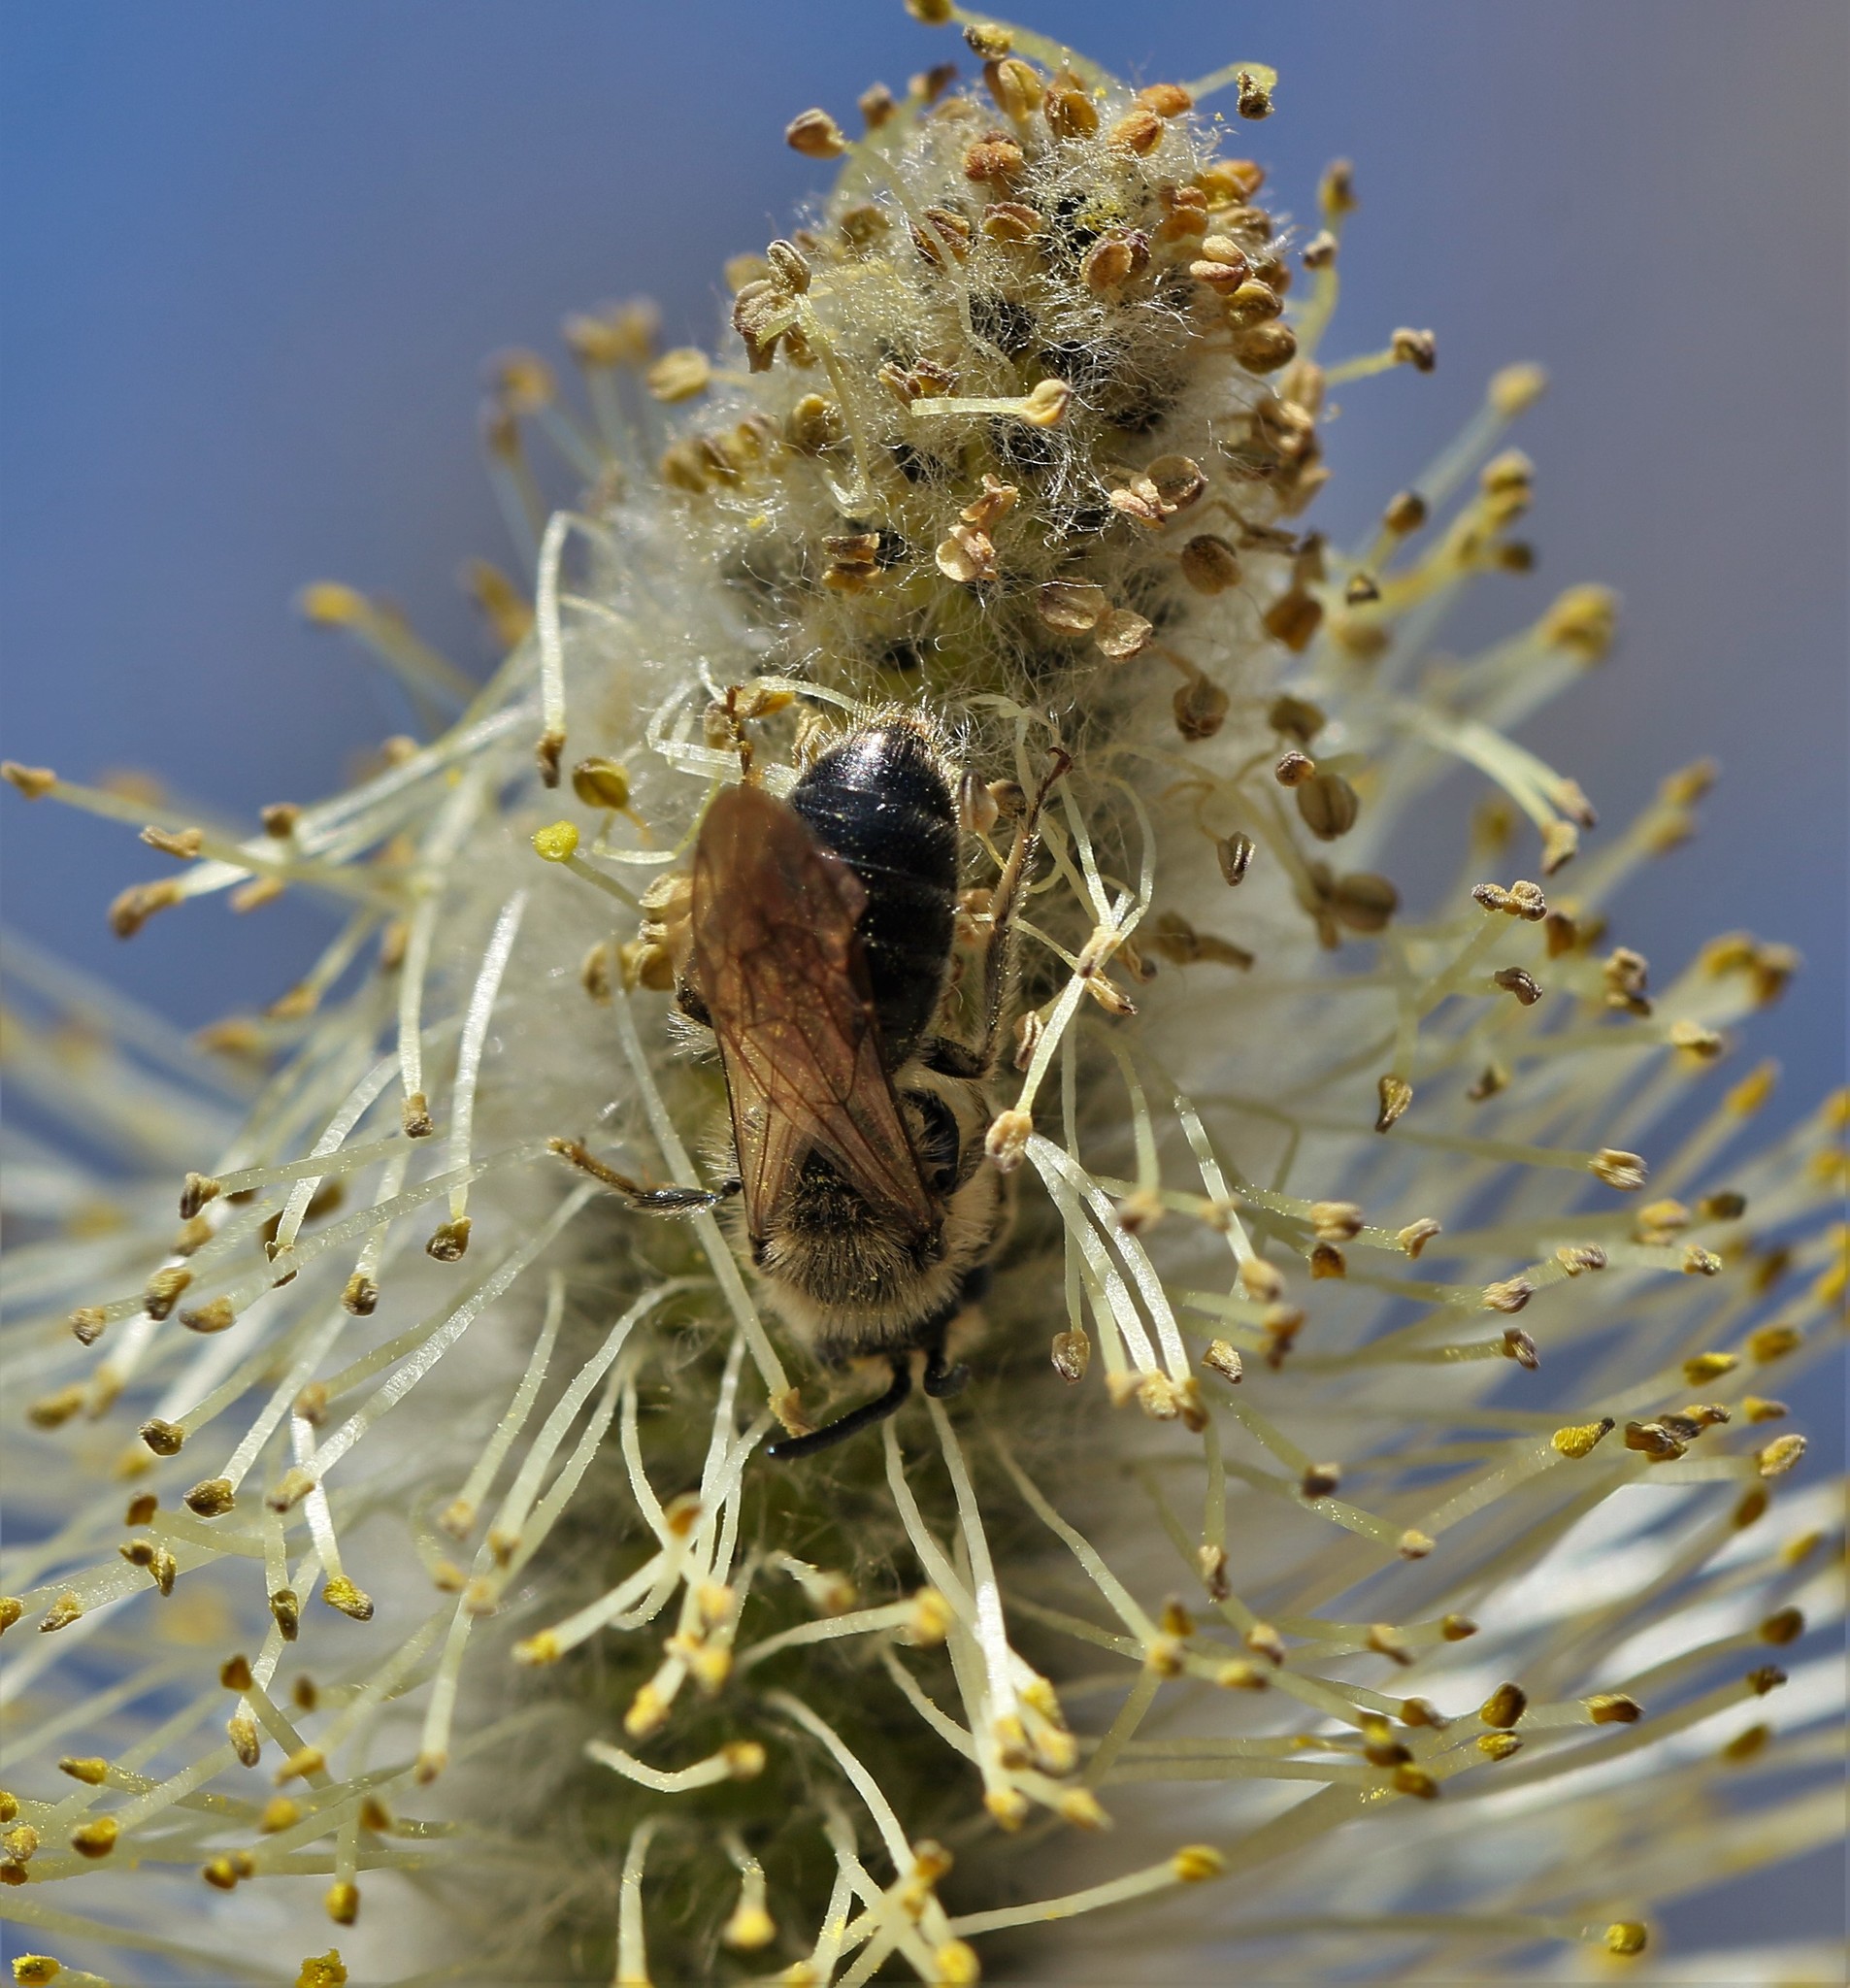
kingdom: Animalia
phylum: Arthropoda
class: Insecta
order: Hymenoptera
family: Andrenidae
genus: Andrena
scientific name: Andrena
